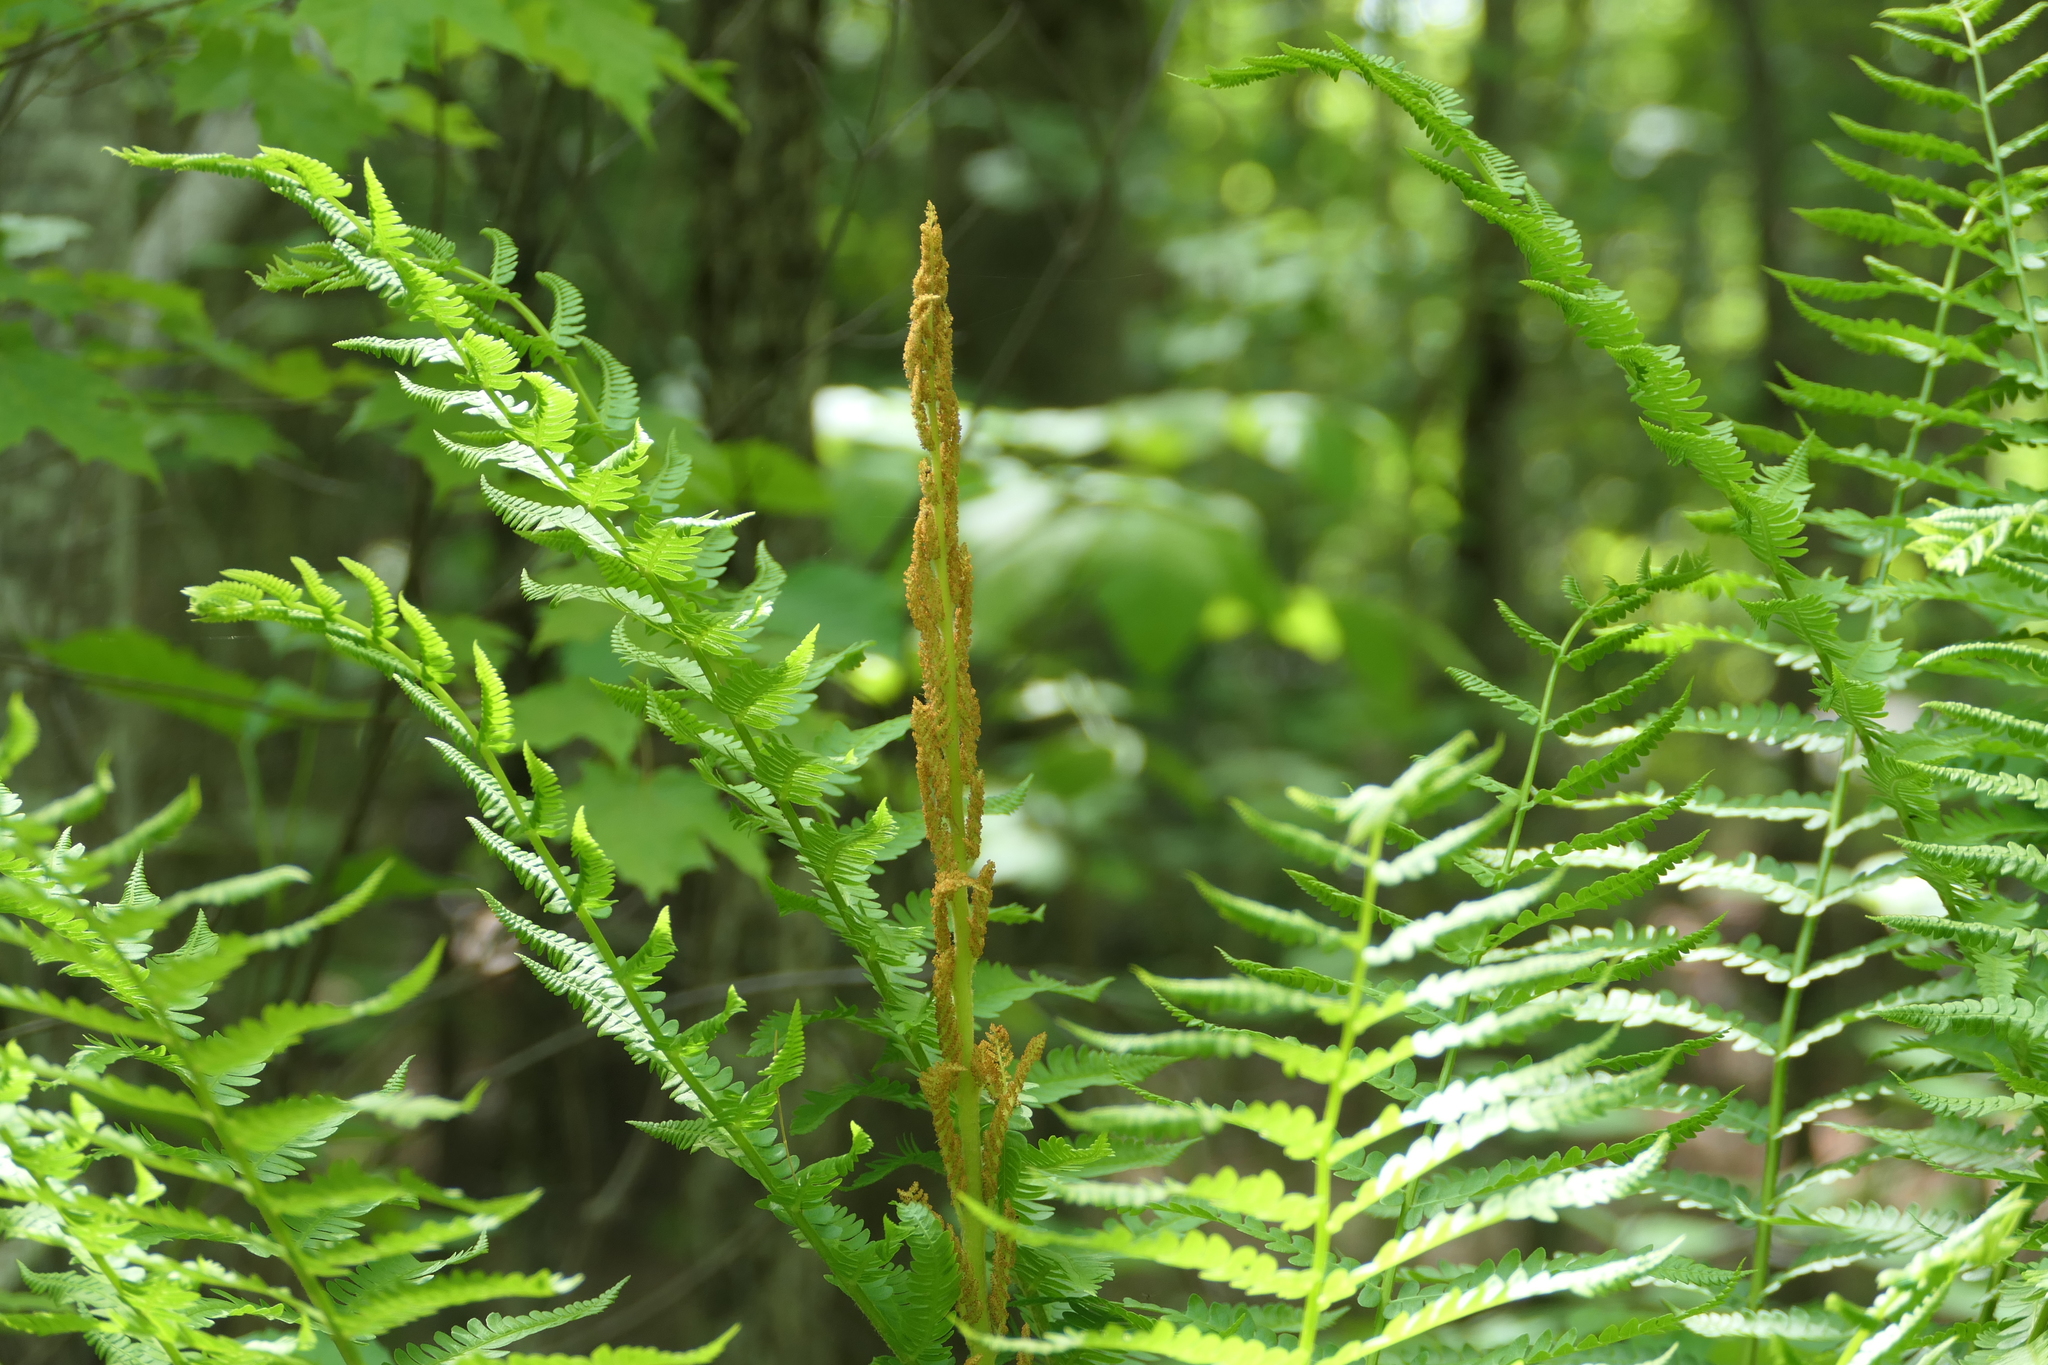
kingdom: Plantae
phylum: Tracheophyta
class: Polypodiopsida
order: Osmundales
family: Osmundaceae
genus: Osmundastrum
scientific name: Osmundastrum cinnamomeum
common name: Cinnamon fern
